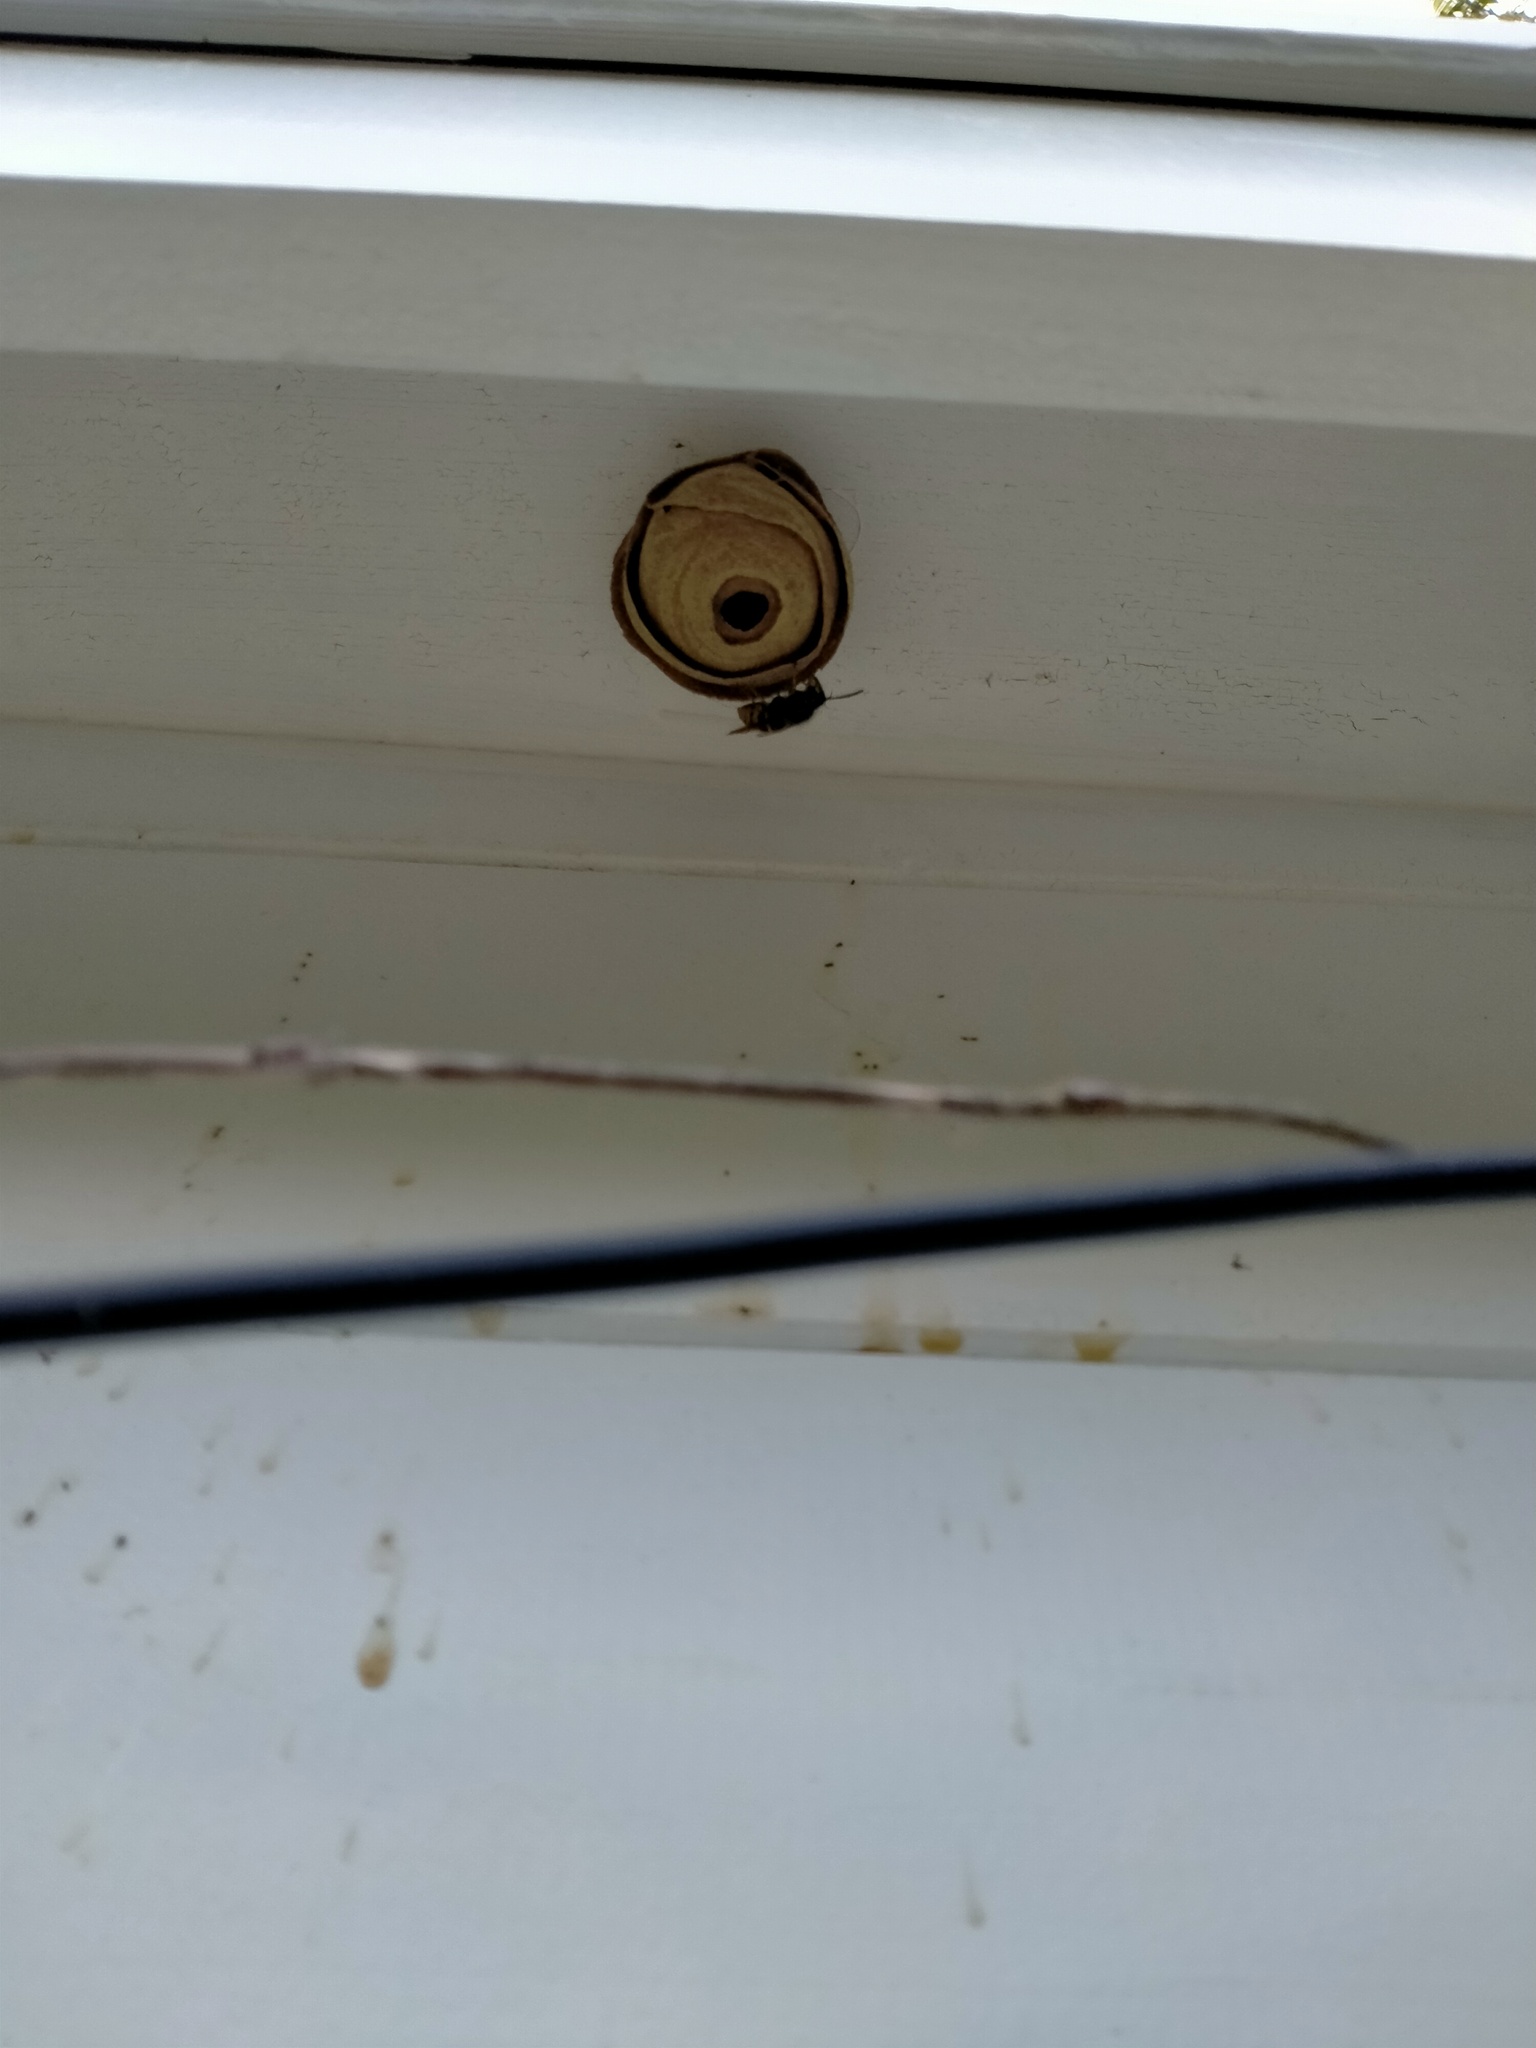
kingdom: Animalia
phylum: Arthropoda
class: Insecta
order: Hymenoptera
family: Vespidae
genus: Vespula
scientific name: Vespula vulgaris
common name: Common wasp
